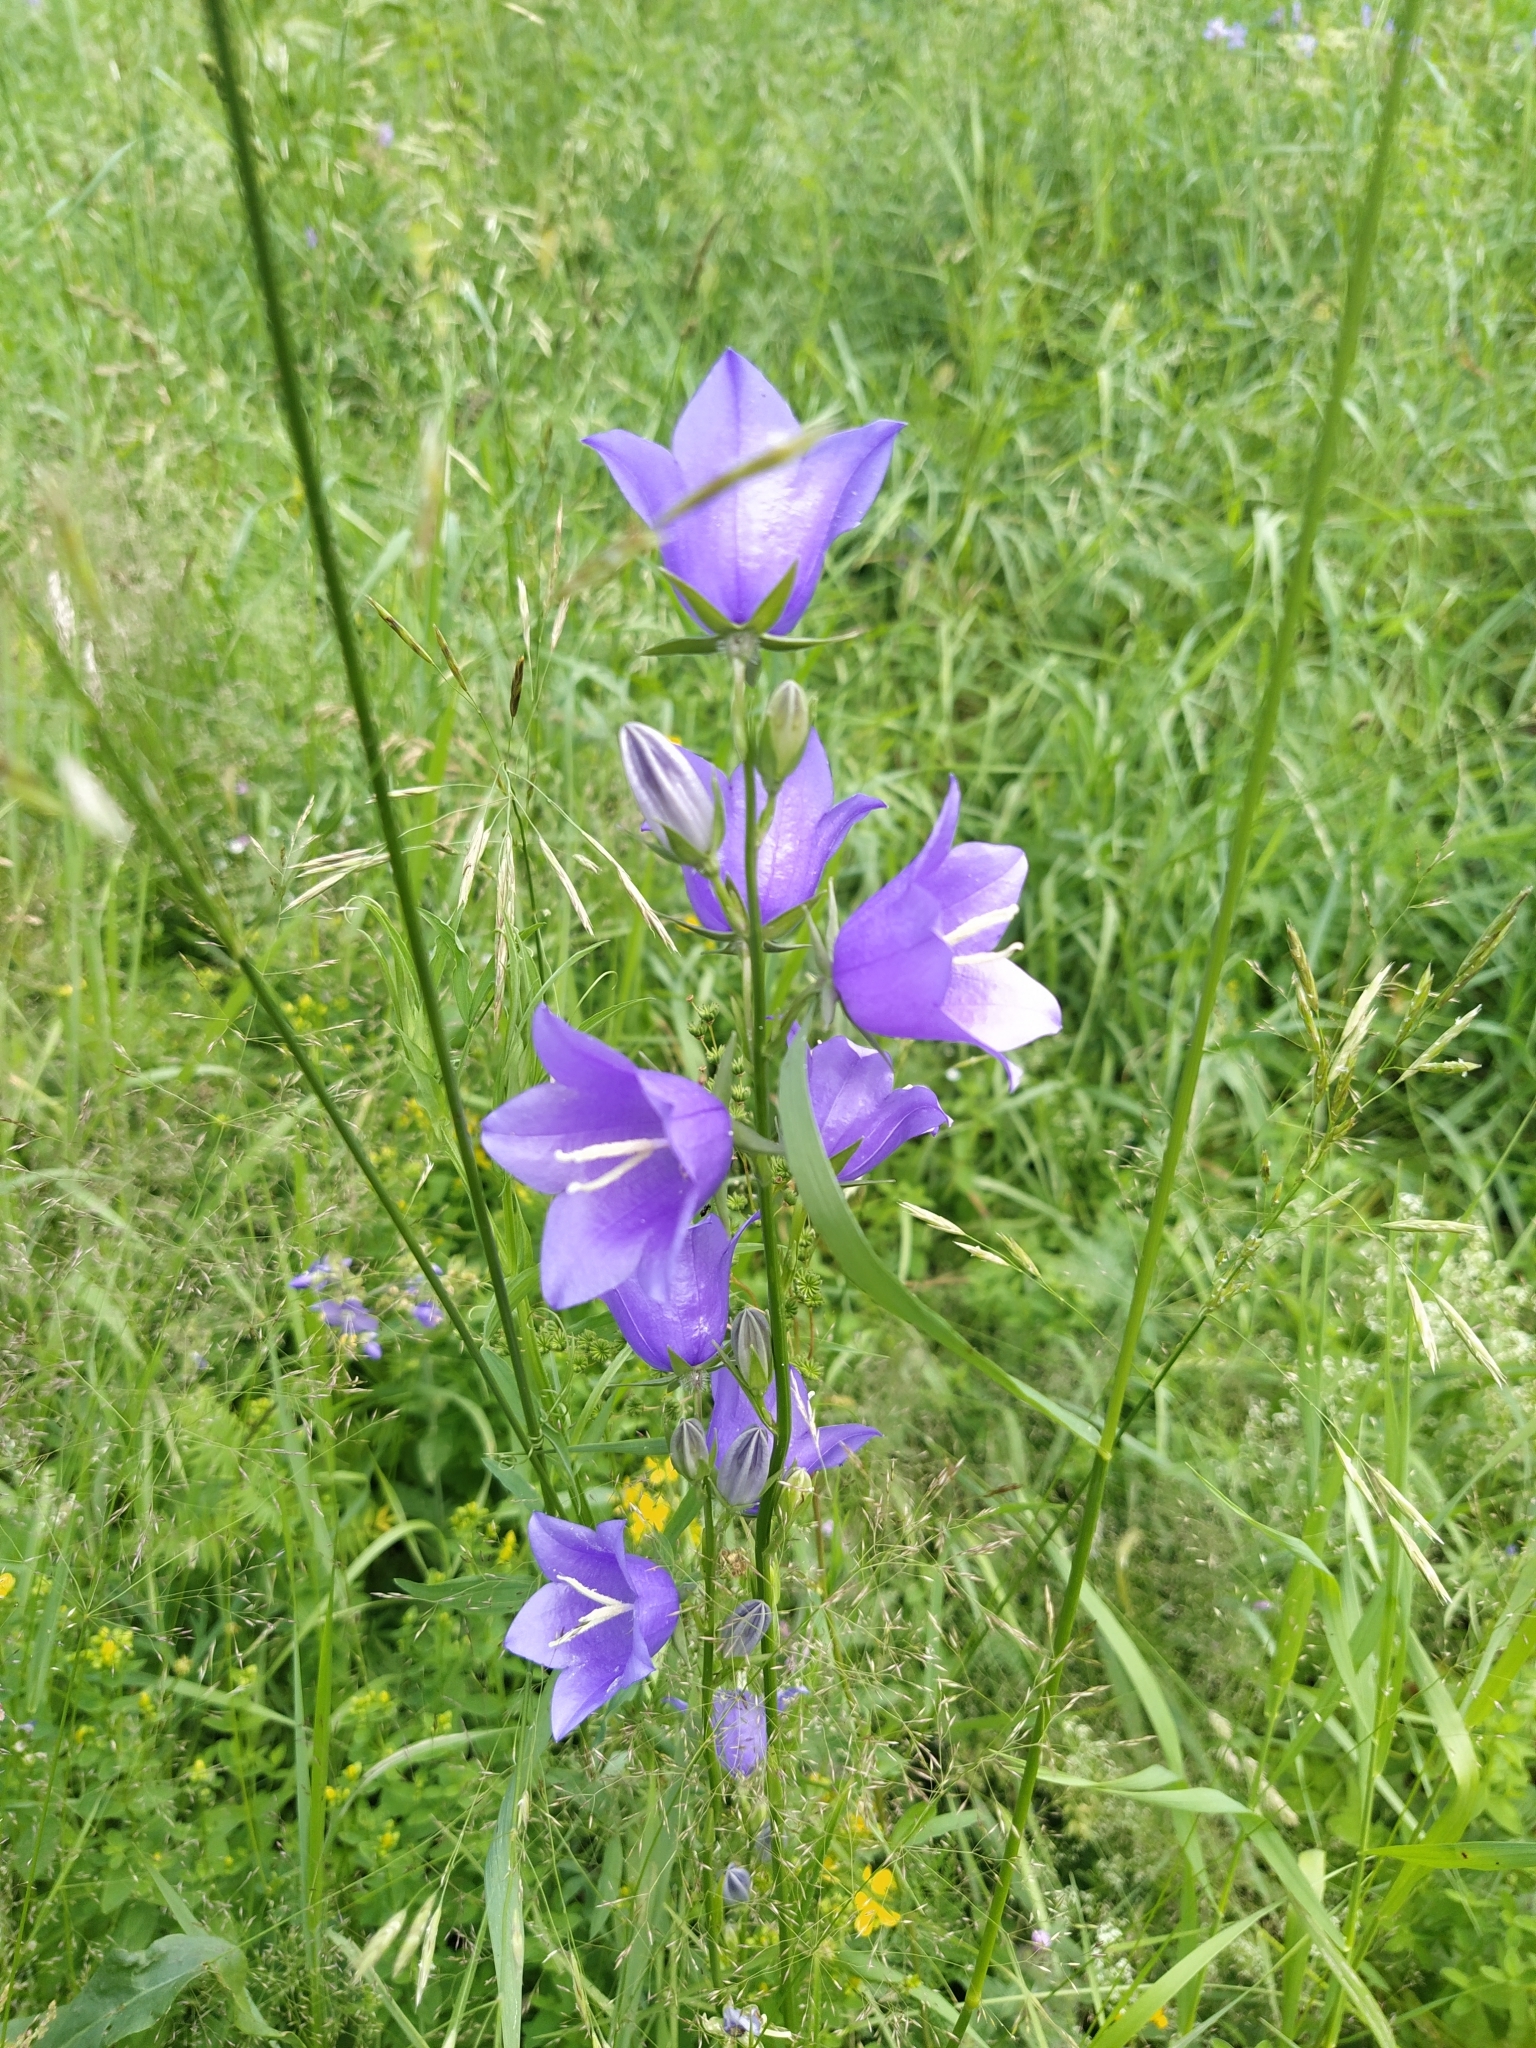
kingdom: Plantae
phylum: Tracheophyta
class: Magnoliopsida
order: Asterales
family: Campanulaceae
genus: Campanula
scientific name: Campanula persicifolia
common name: Peach-leaved bellflower
